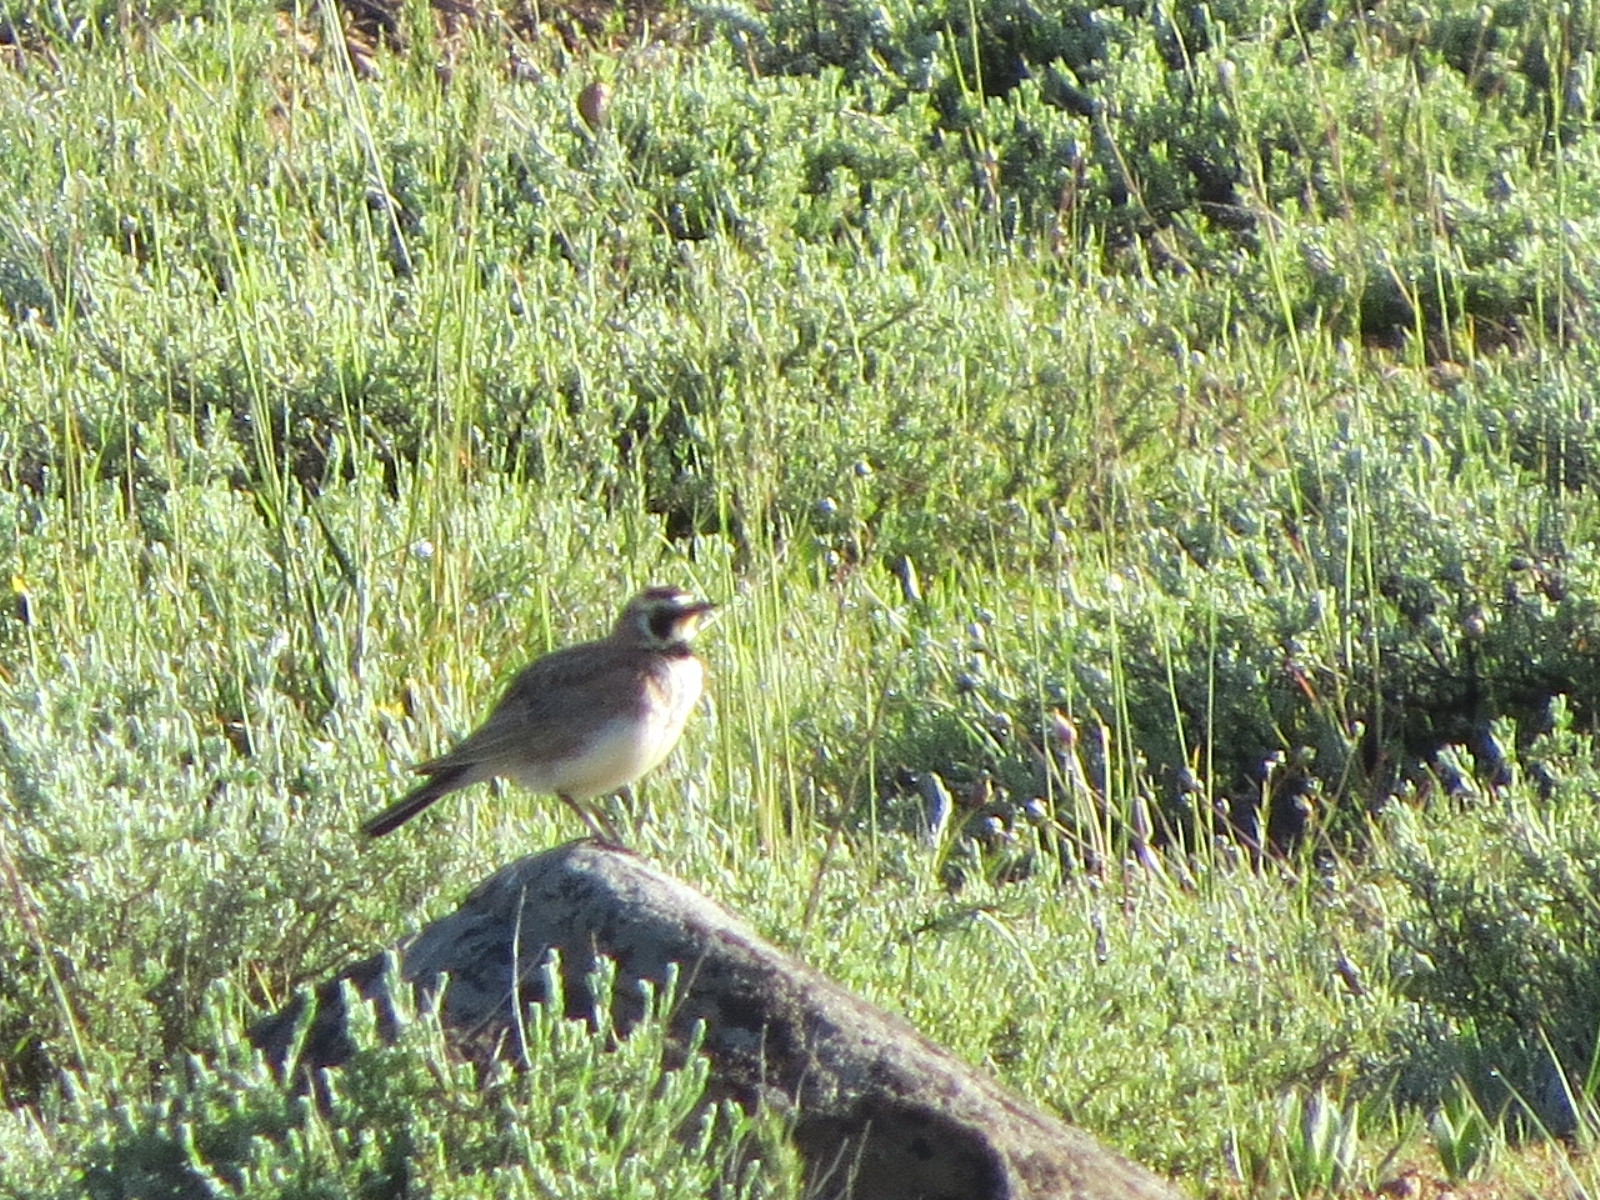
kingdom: Animalia
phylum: Chordata
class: Aves
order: Passeriformes
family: Alaudidae
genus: Eremophila
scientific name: Eremophila alpestris
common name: Horned lark
